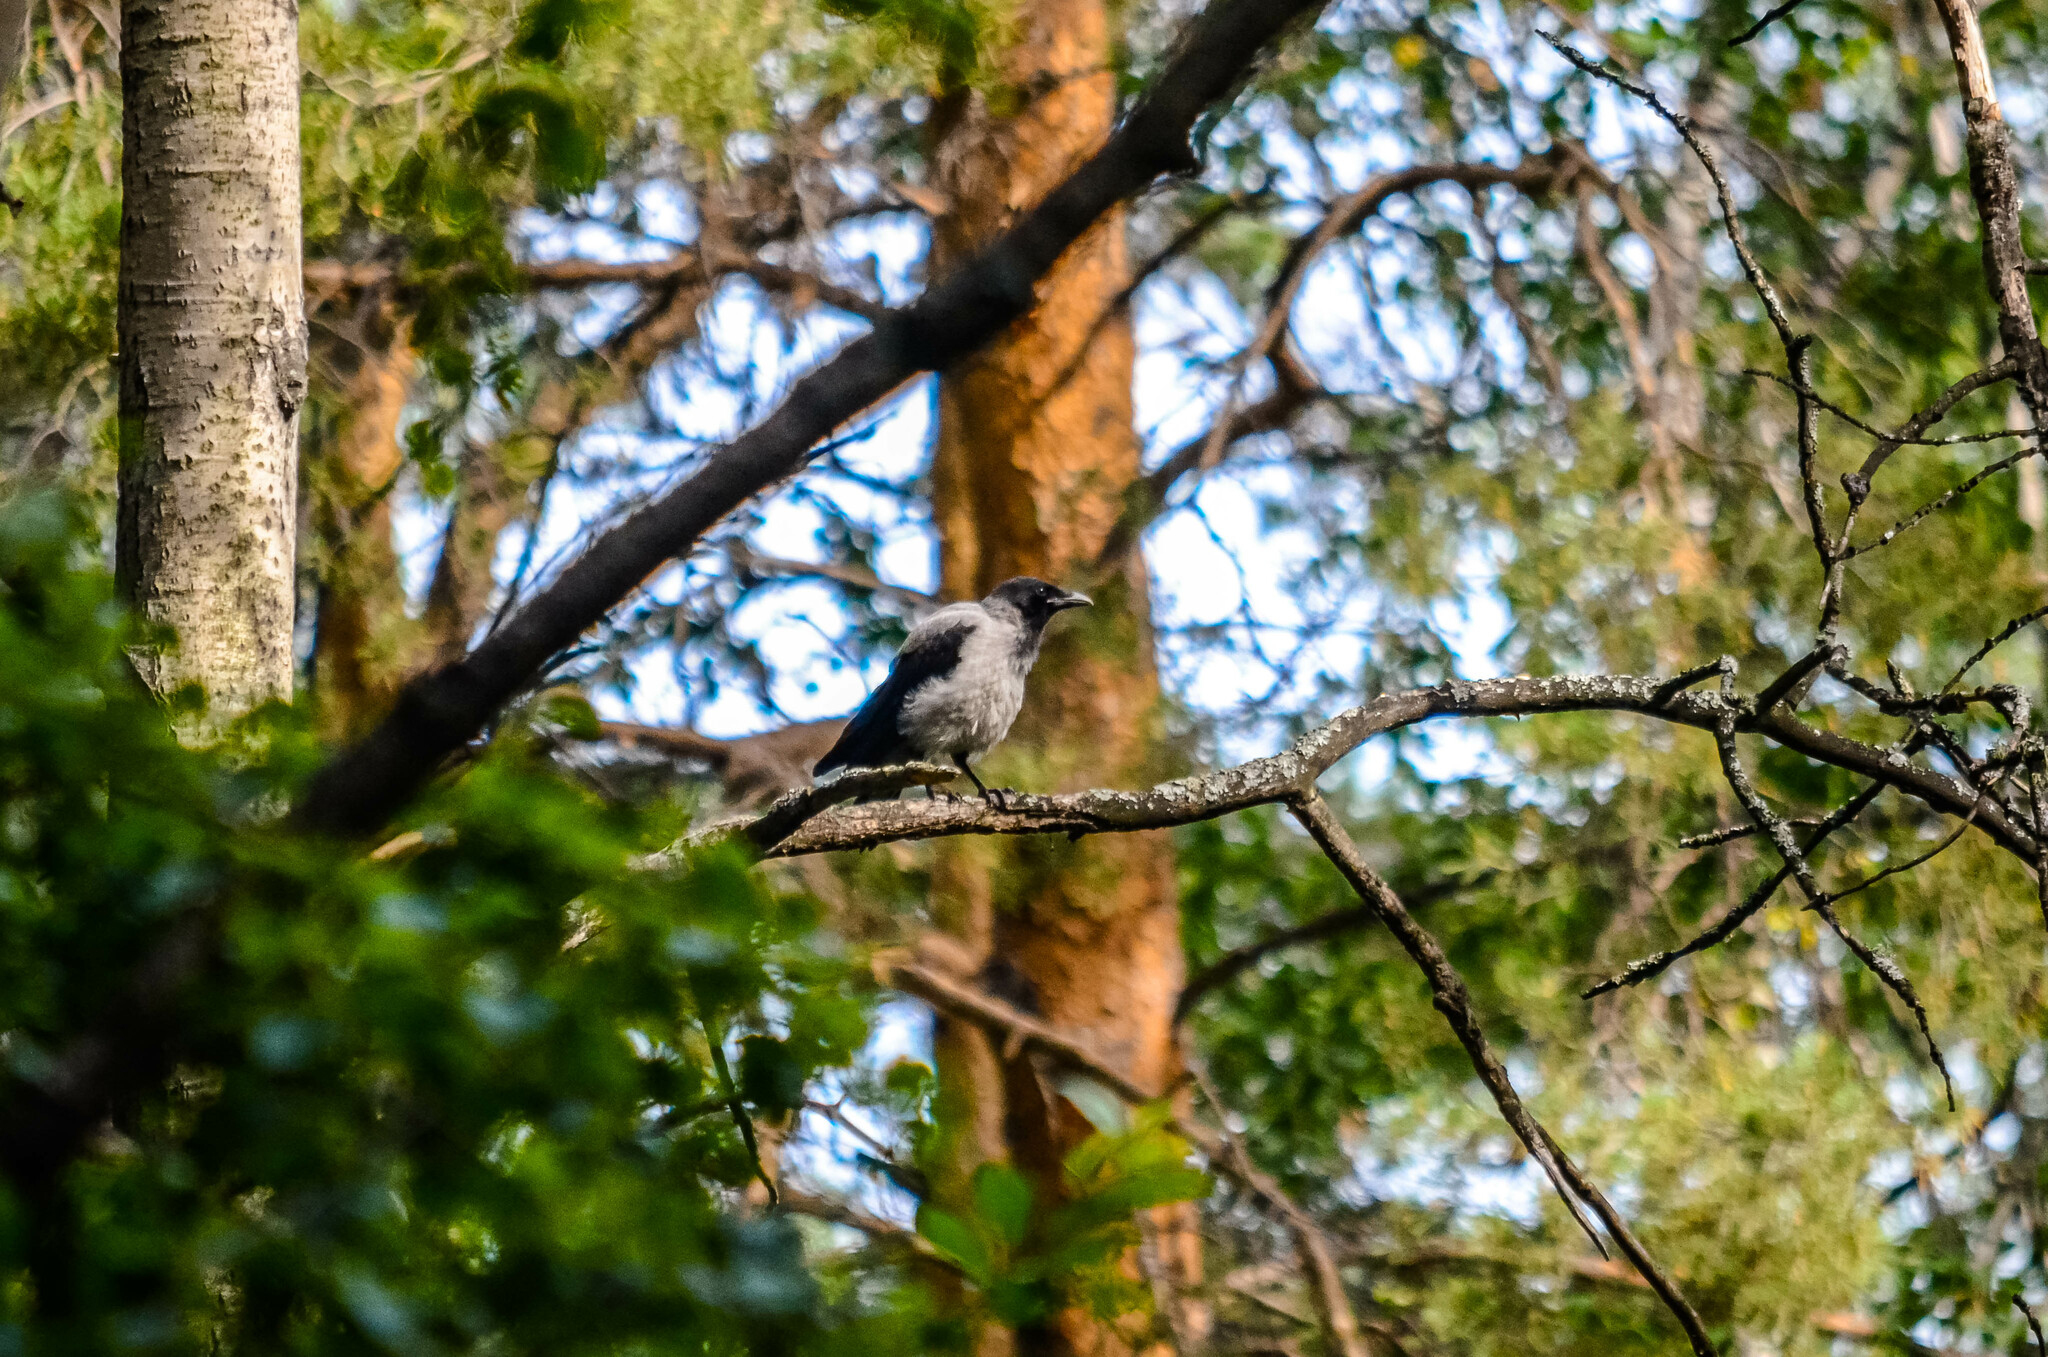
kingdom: Animalia
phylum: Chordata
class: Aves
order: Passeriformes
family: Corvidae
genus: Corvus
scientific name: Corvus cornix
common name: Hooded crow
